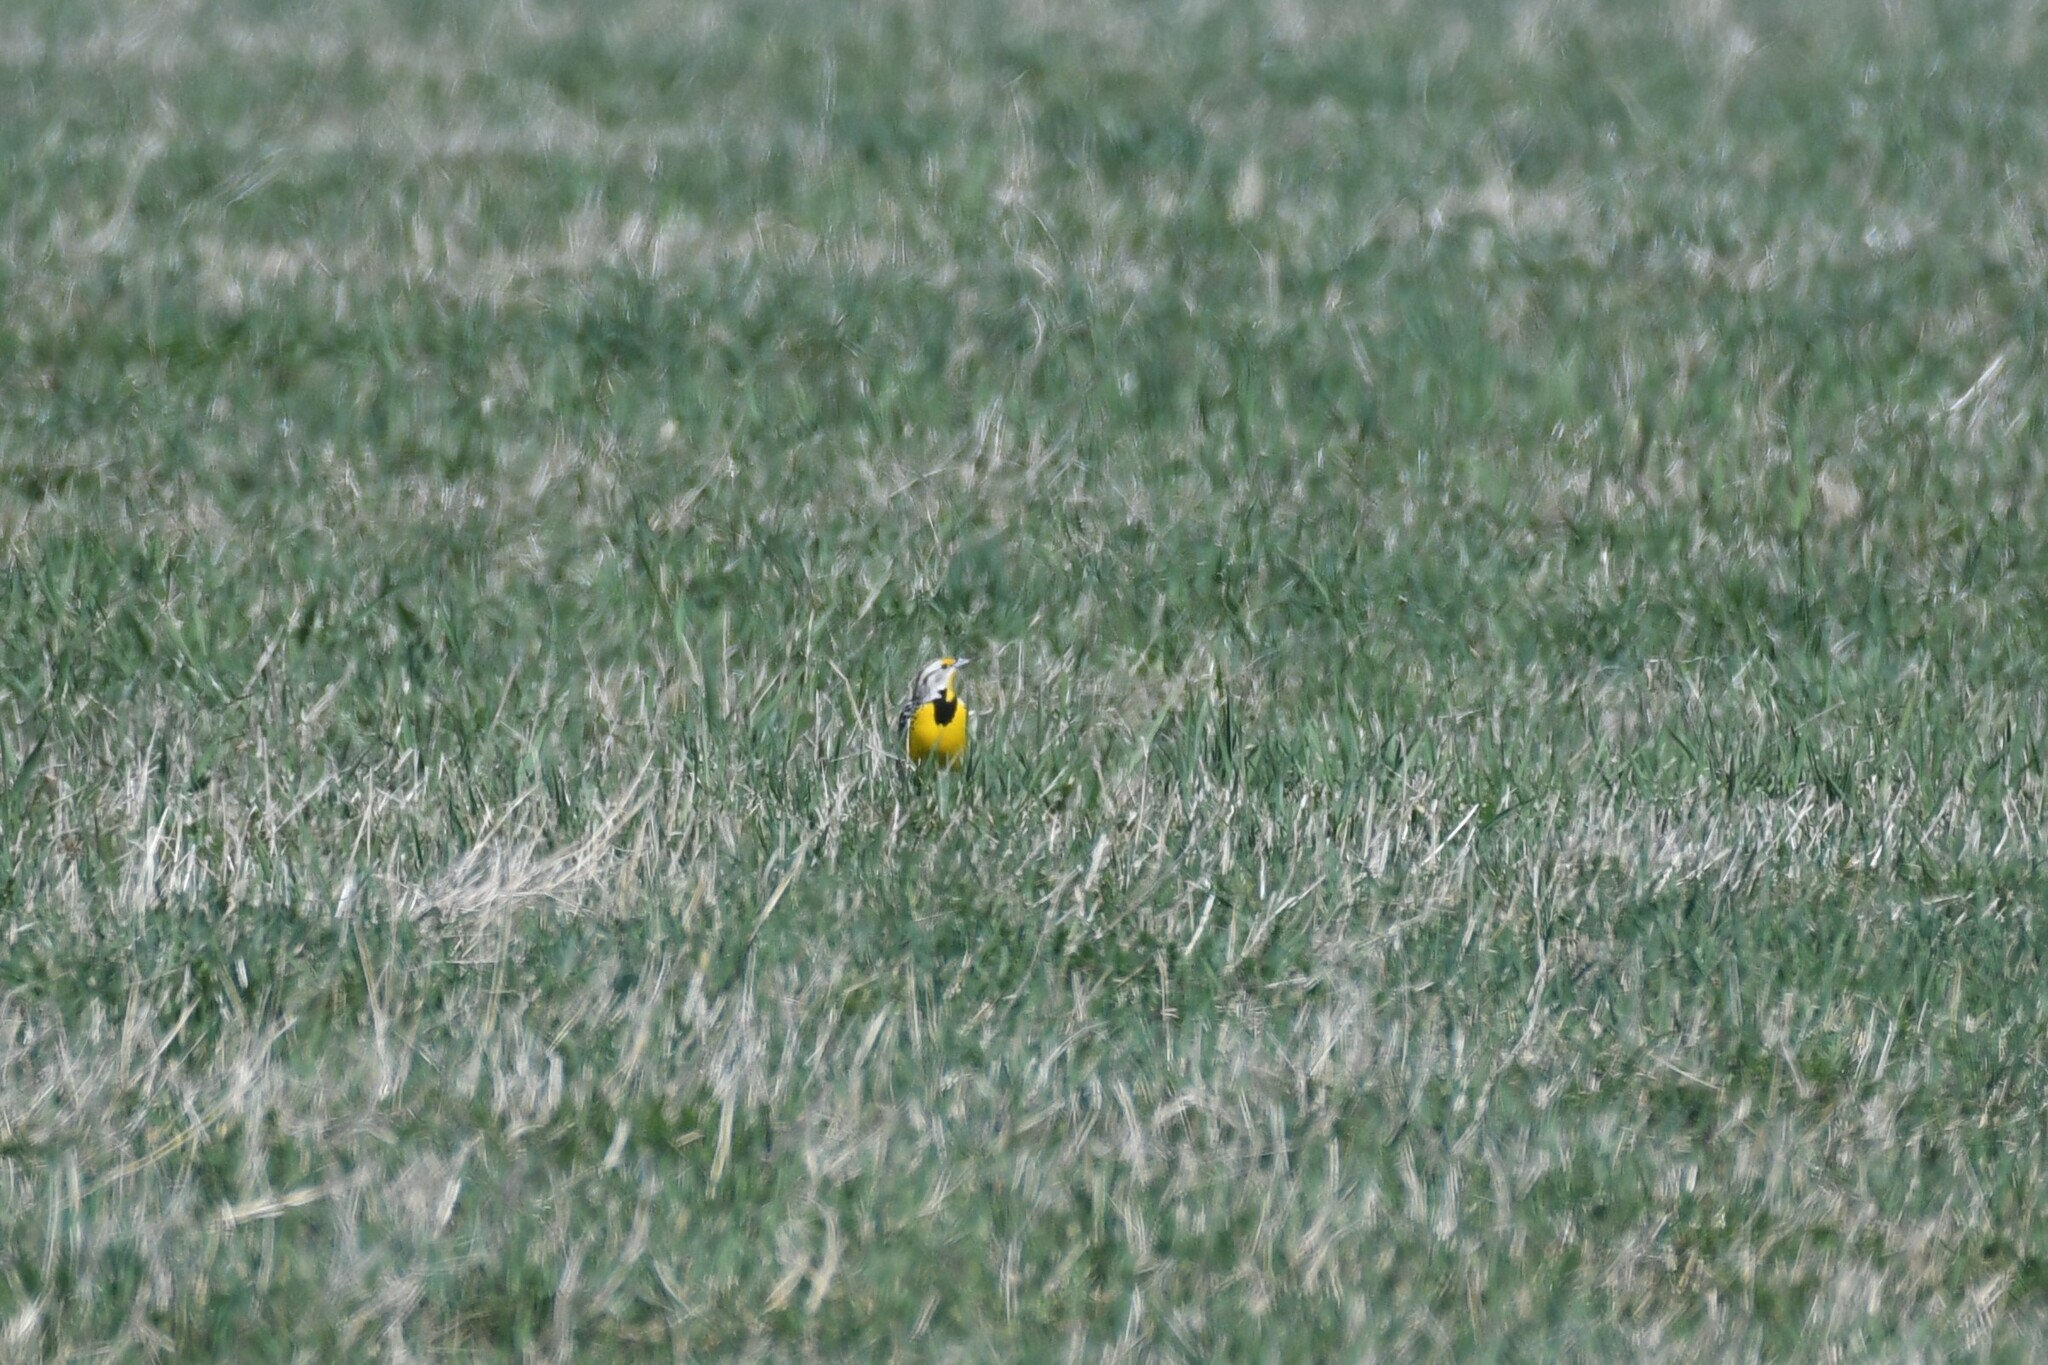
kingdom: Animalia
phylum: Chordata
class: Aves
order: Passeriformes
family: Icteridae
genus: Sturnella
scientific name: Sturnella magna
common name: Eastern meadowlark
